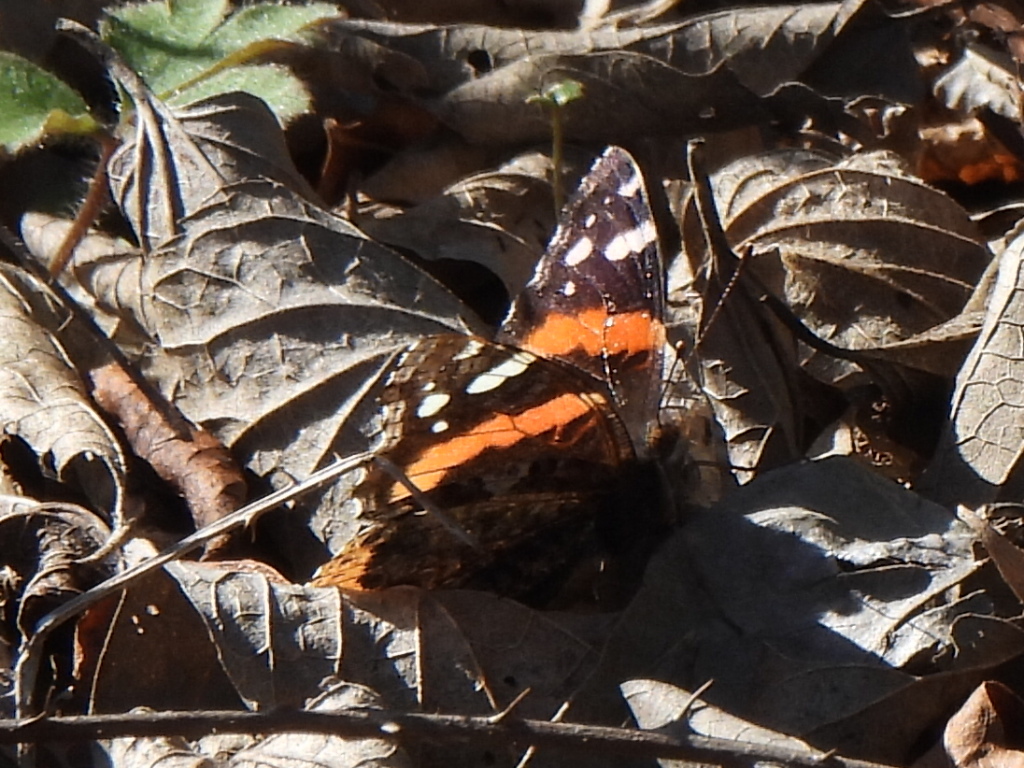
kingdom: Animalia
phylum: Arthropoda
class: Insecta
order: Lepidoptera
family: Nymphalidae
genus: Vanessa
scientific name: Vanessa atalanta
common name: Red admiral
